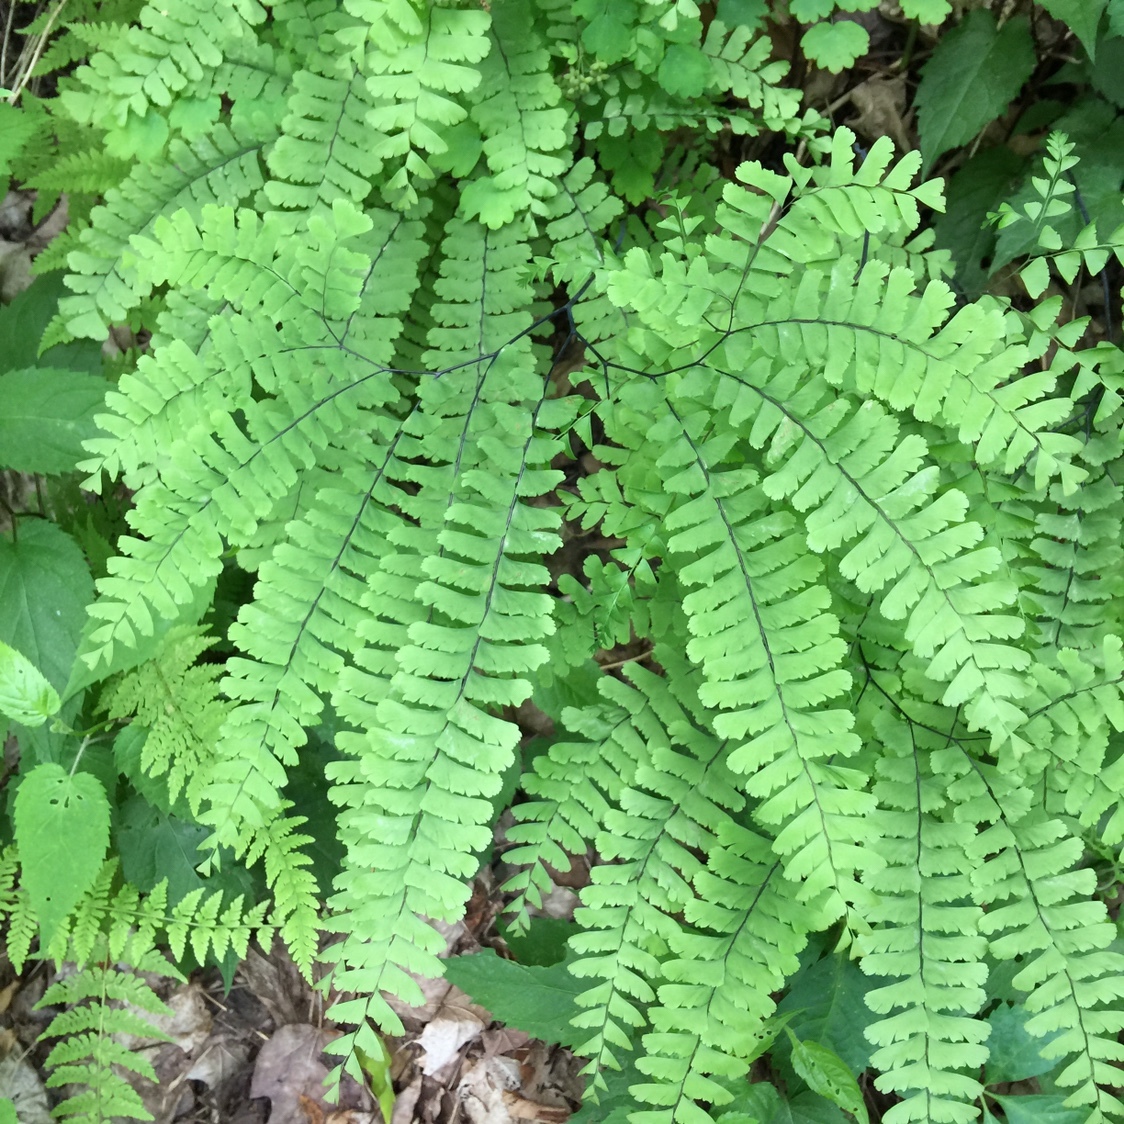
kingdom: Plantae
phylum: Tracheophyta
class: Polypodiopsida
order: Polypodiales
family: Pteridaceae
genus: Adiantum
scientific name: Adiantum pedatum
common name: Five-finger fern
